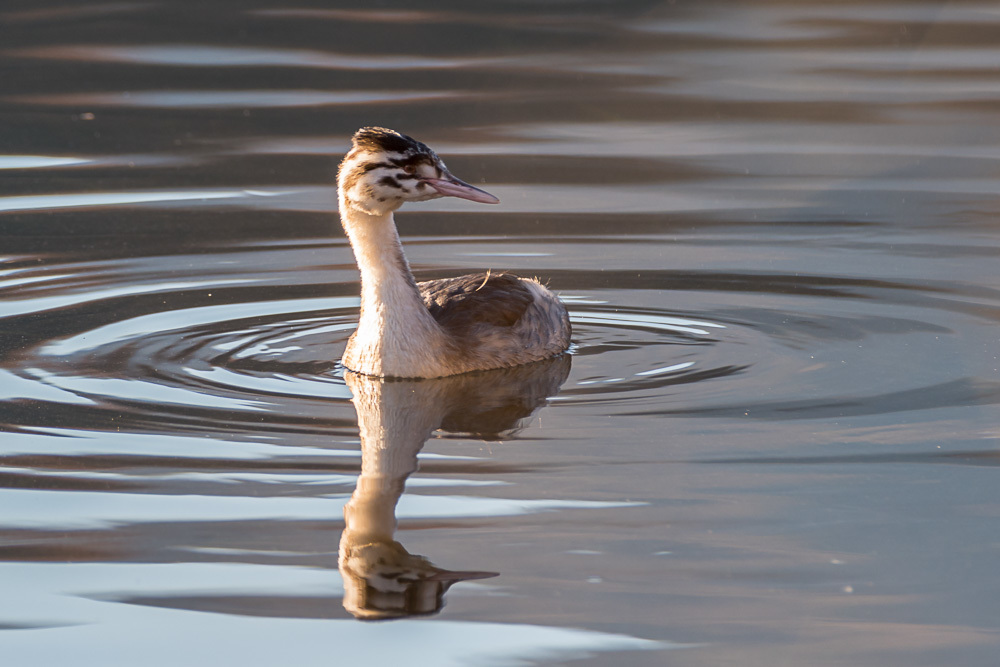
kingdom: Animalia
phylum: Chordata
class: Aves
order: Podicipediformes
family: Podicipedidae
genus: Podiceps
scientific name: Podiceps cristatus
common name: Great crested grebe
